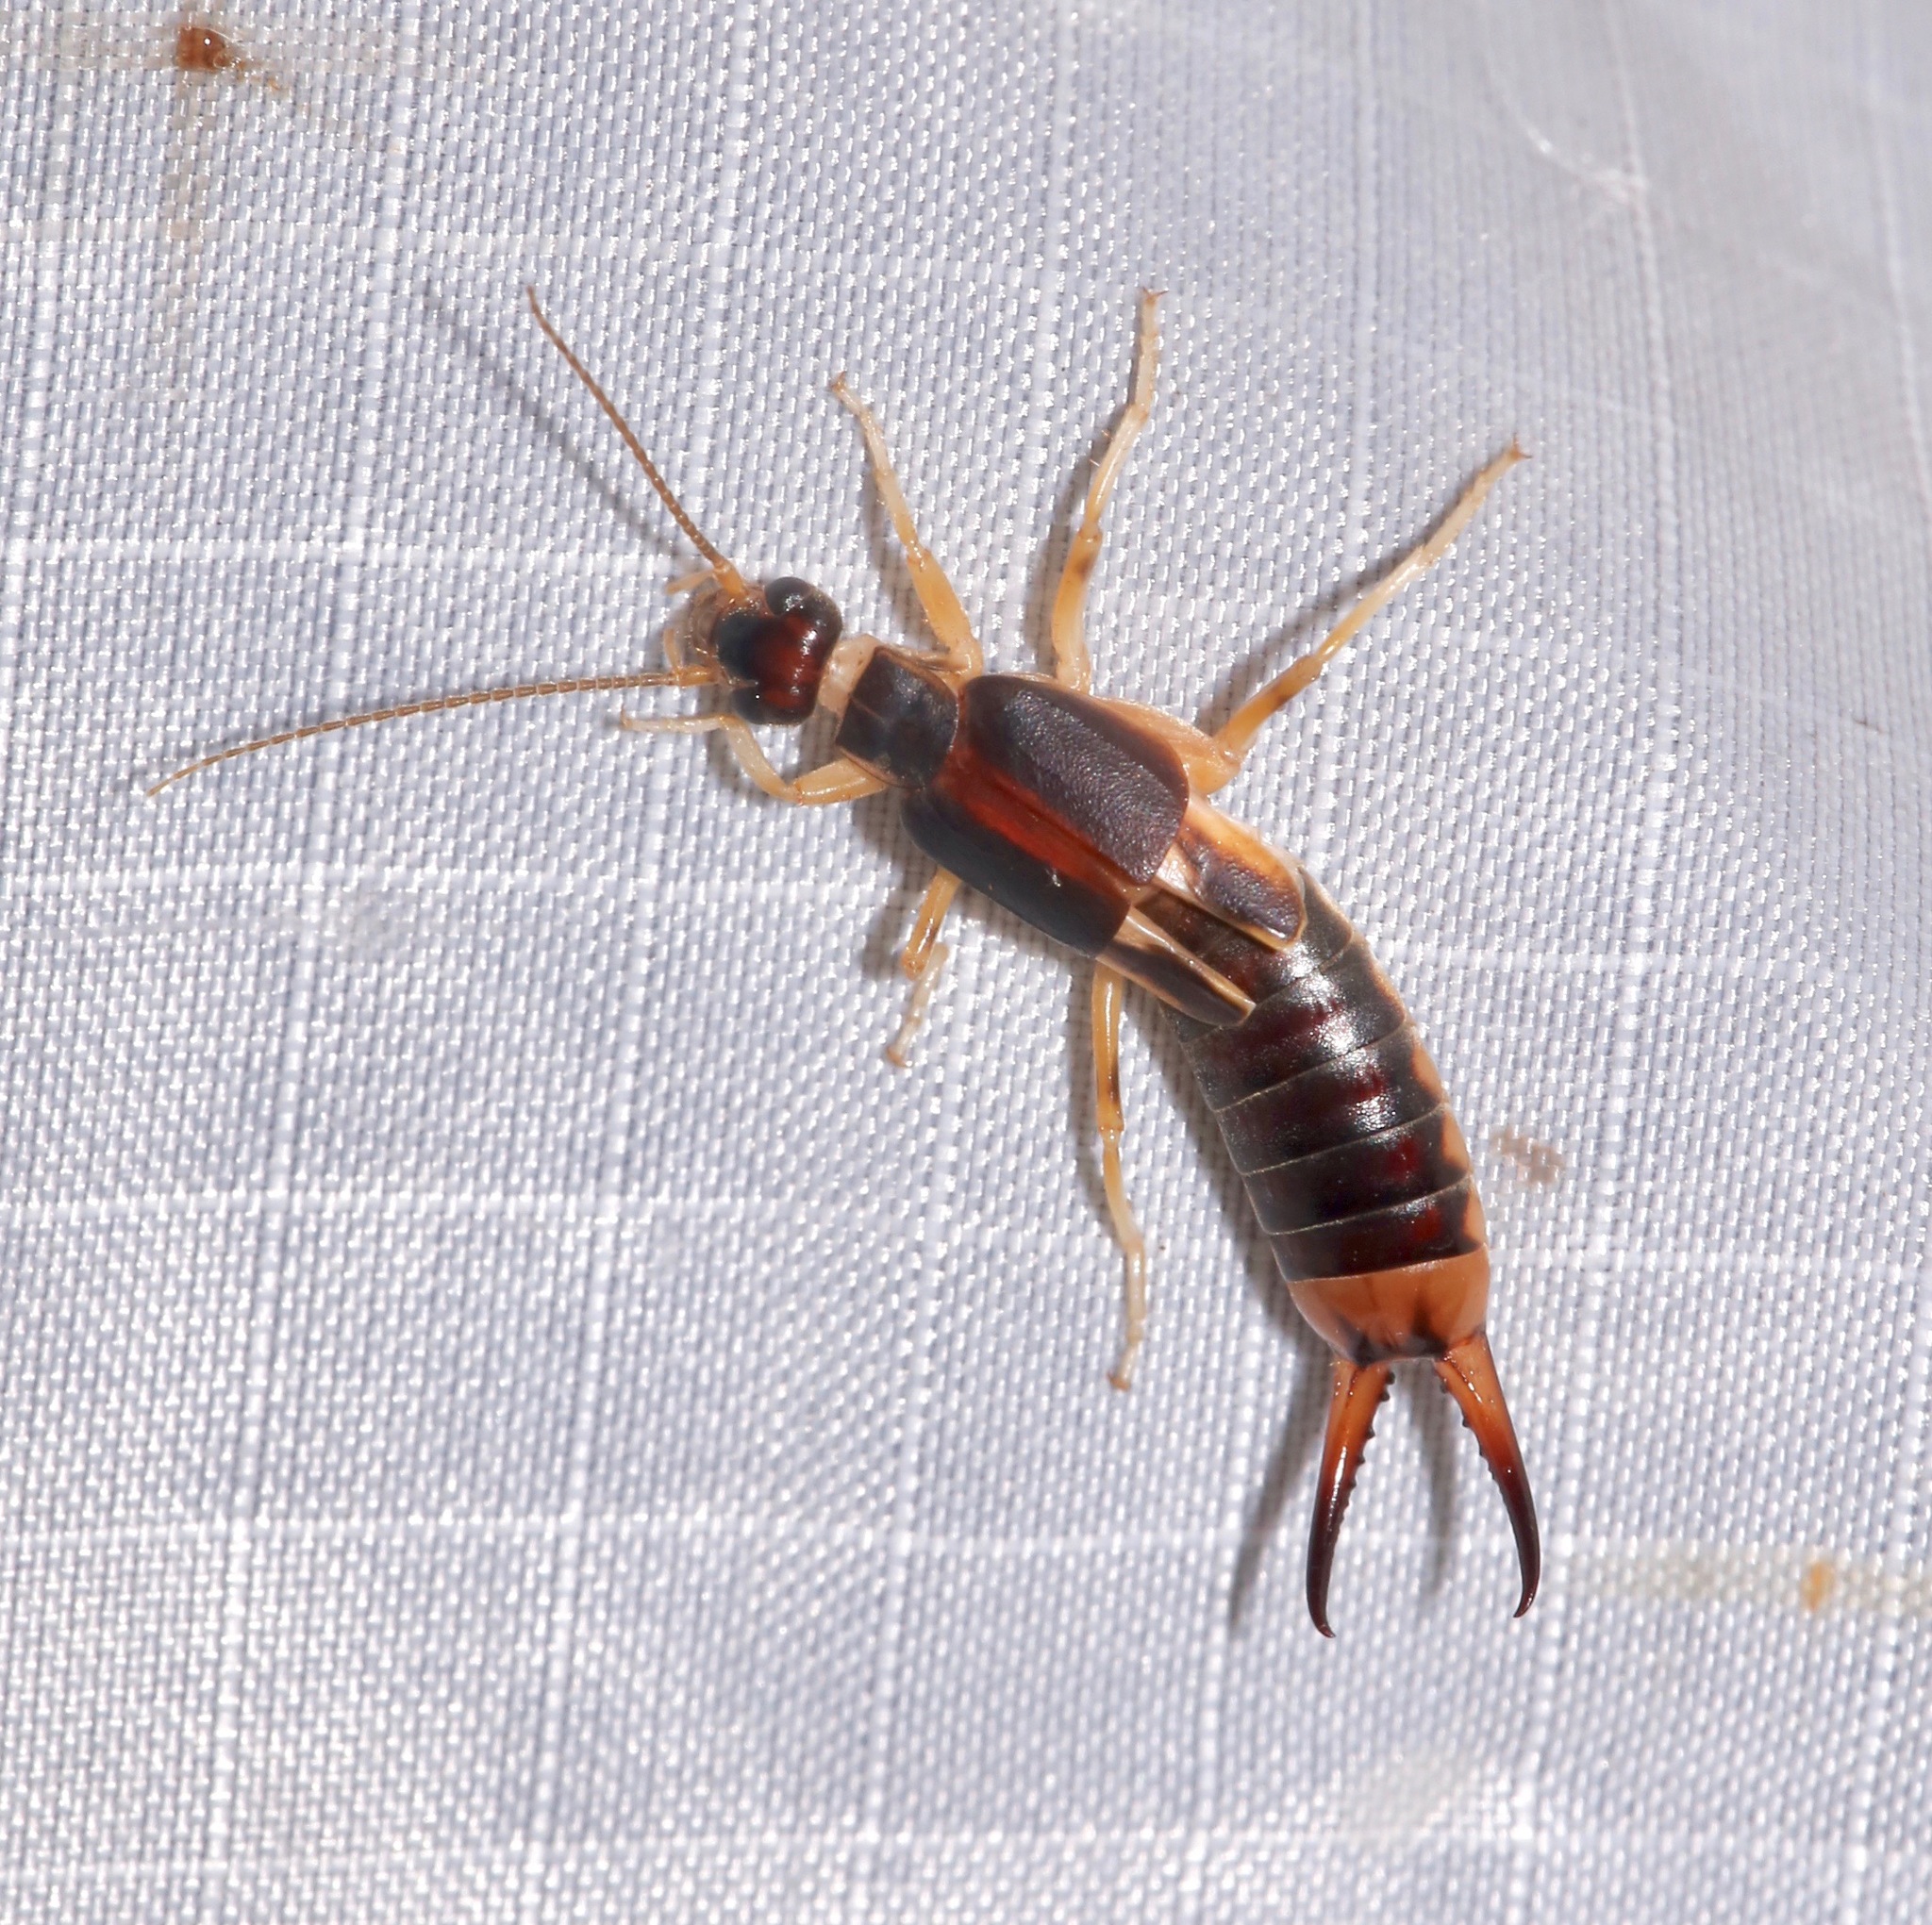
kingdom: Animalia
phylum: Arthropoda
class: Insecta
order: Dermaptera
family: Labiduridae
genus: Labidura
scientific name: Labidura riparia
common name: Striped earwig
